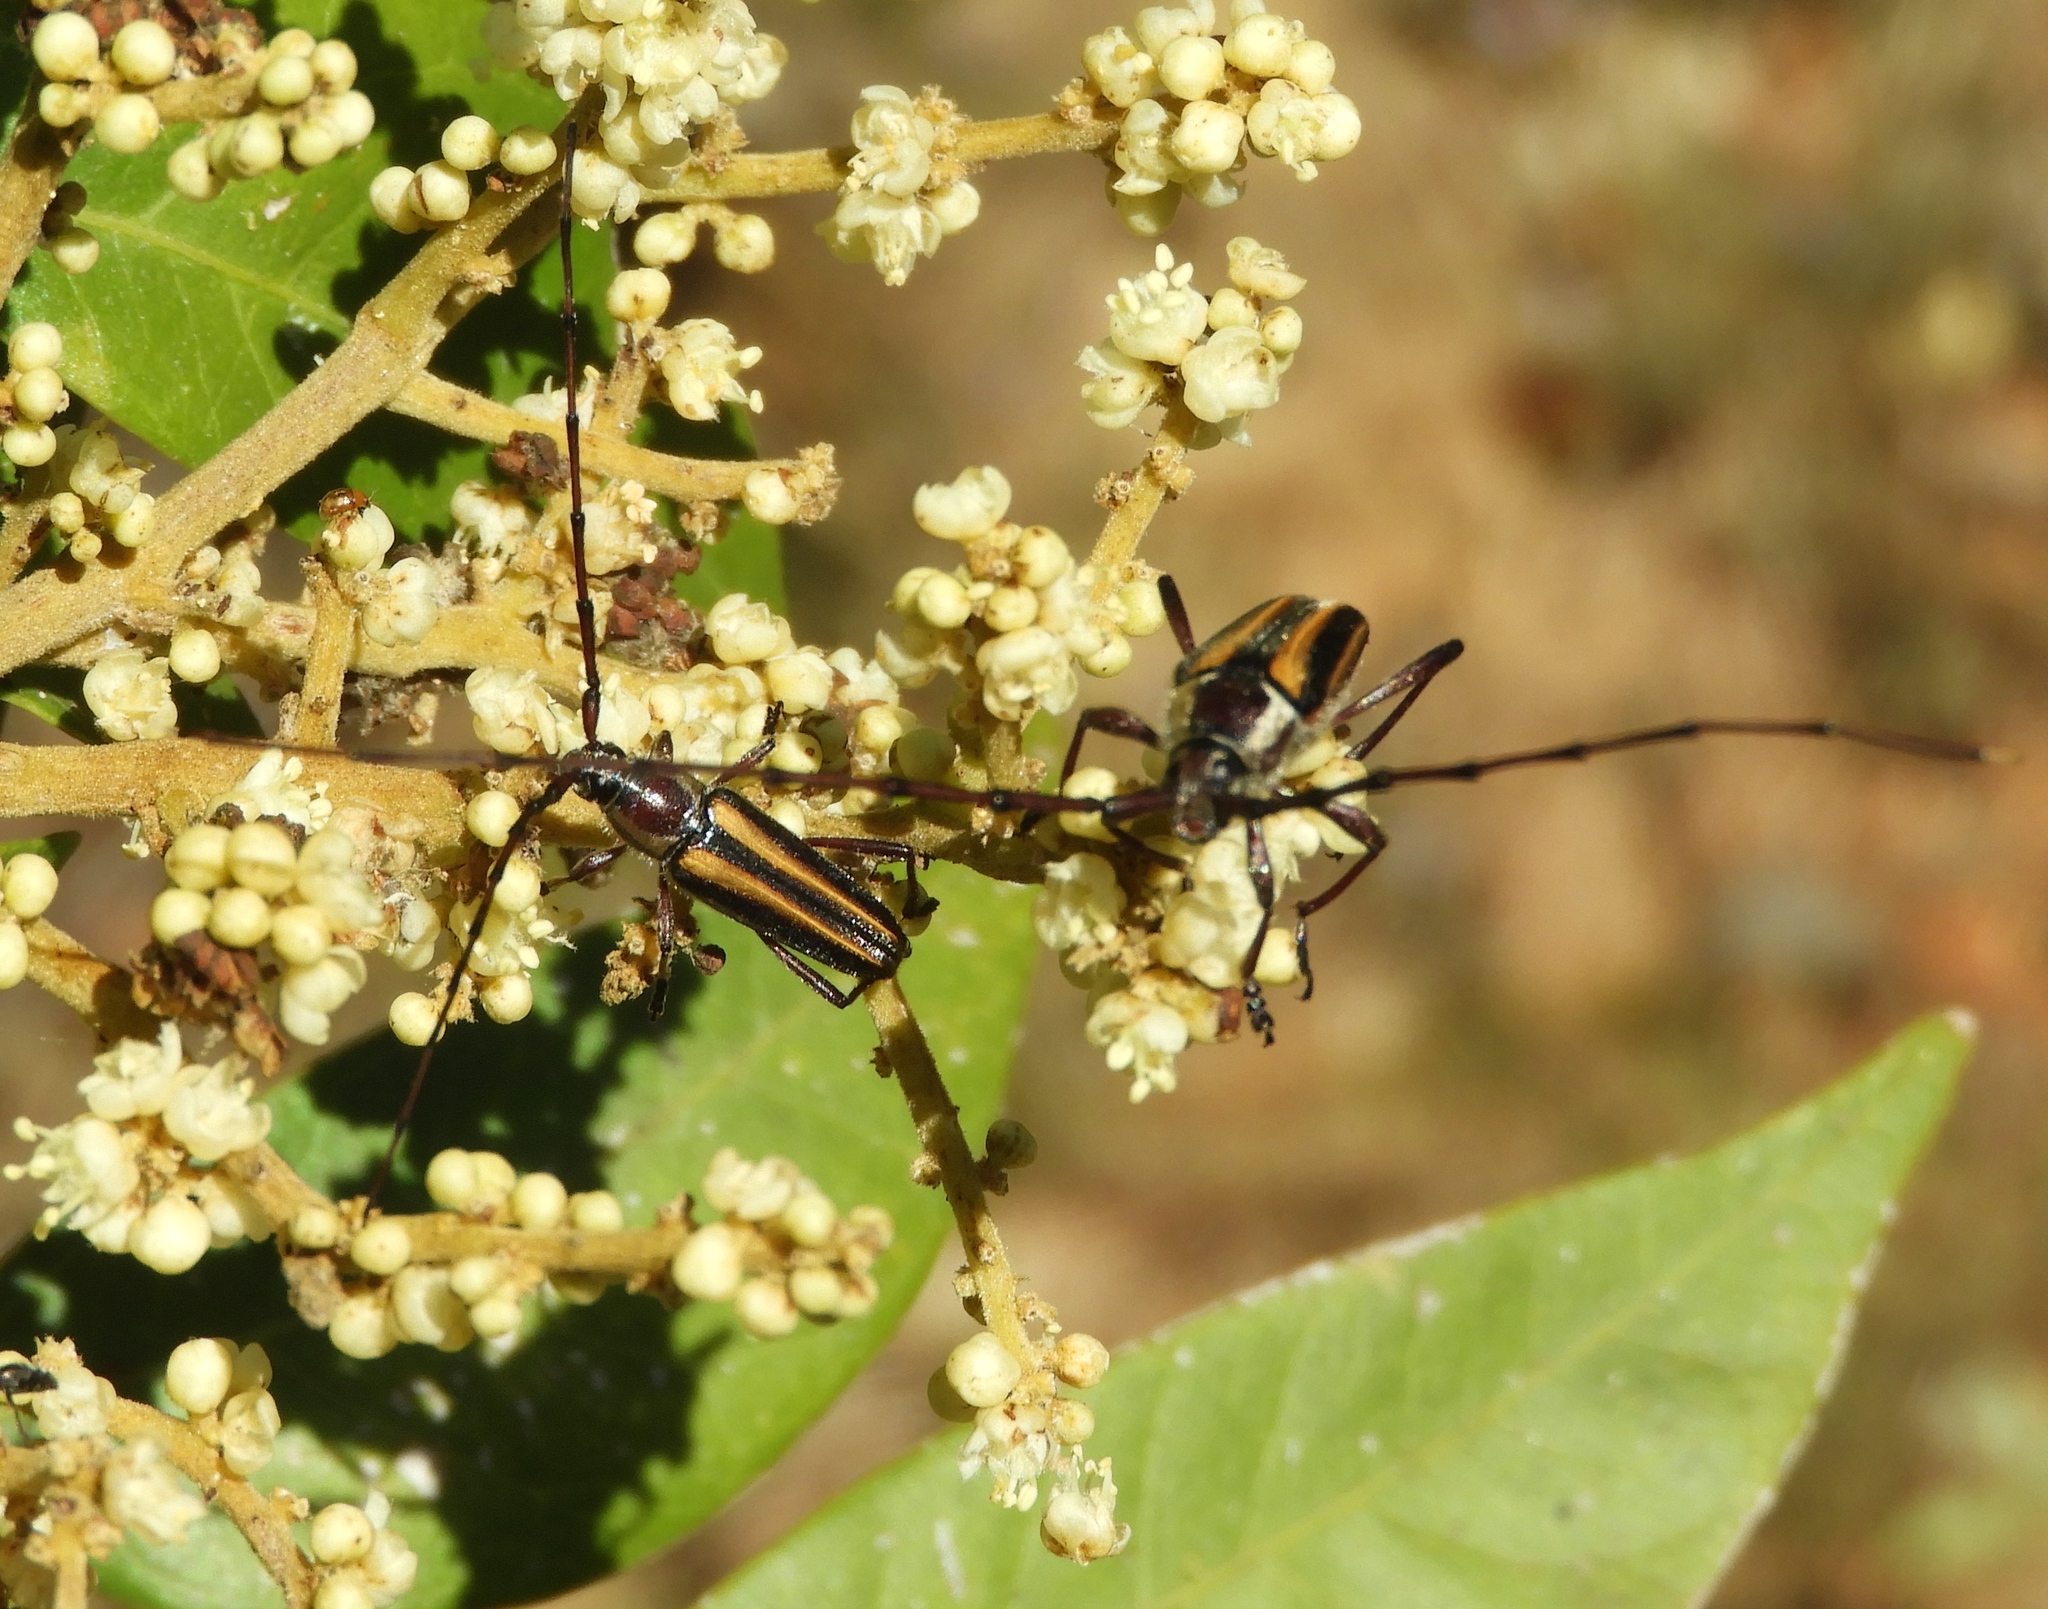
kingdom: Animalia
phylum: Arthropoda
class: Insecta
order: Coleoptera
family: Cerambycidae
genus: Sphaenothecus
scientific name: Sphaenothecus maccartyi
